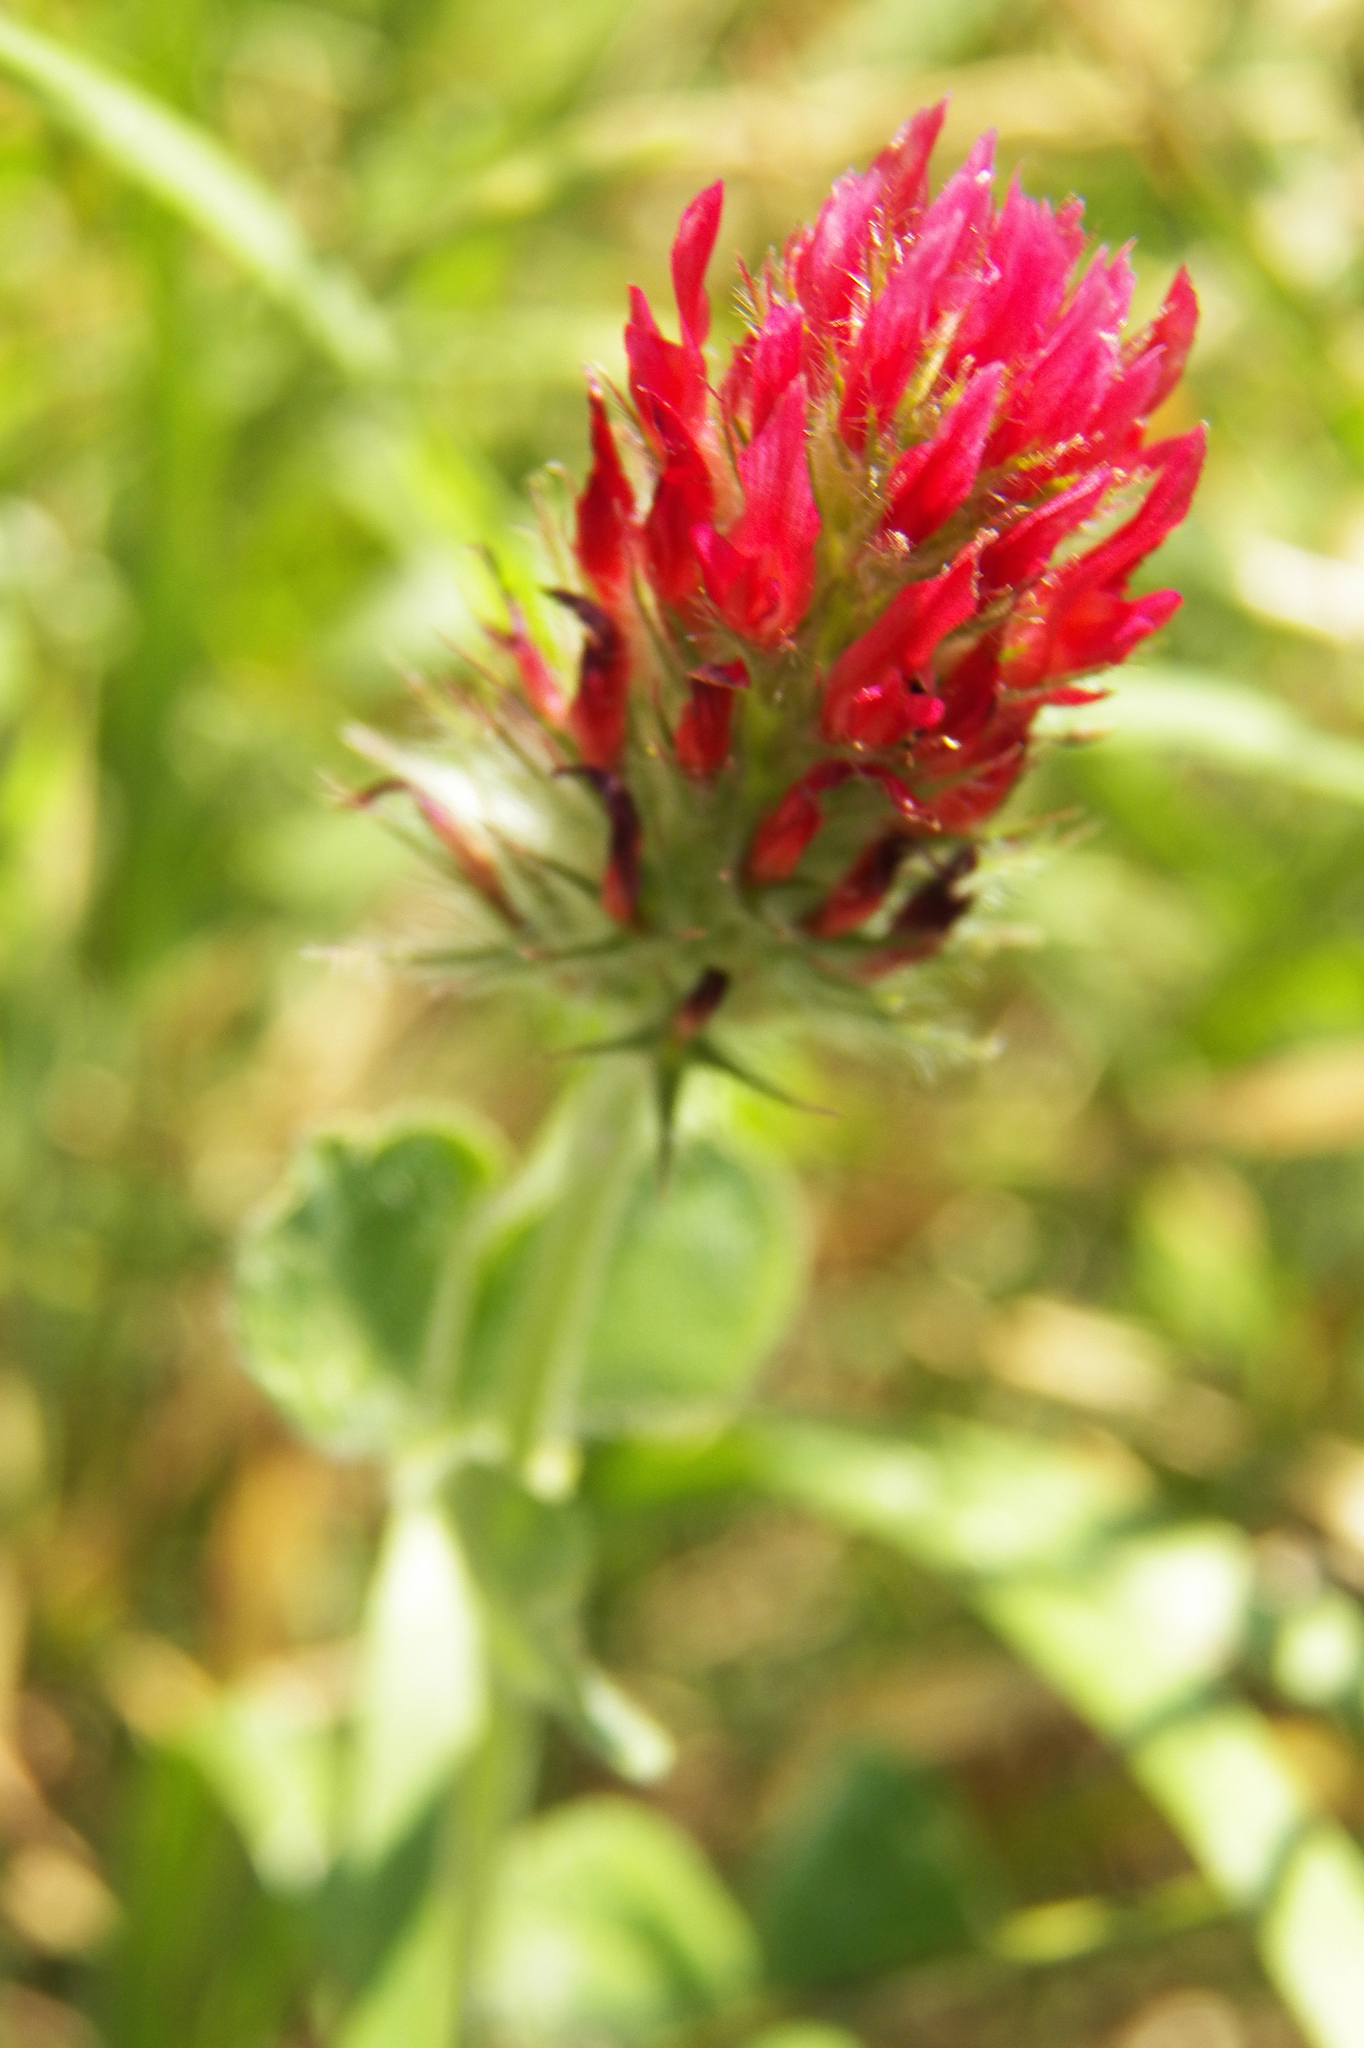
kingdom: Plantae
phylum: Tracheophyta
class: Magnoliopsida
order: Fabales
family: Fabaceae
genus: Trifolium
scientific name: Trifolium incarnatum
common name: Crimson clover
